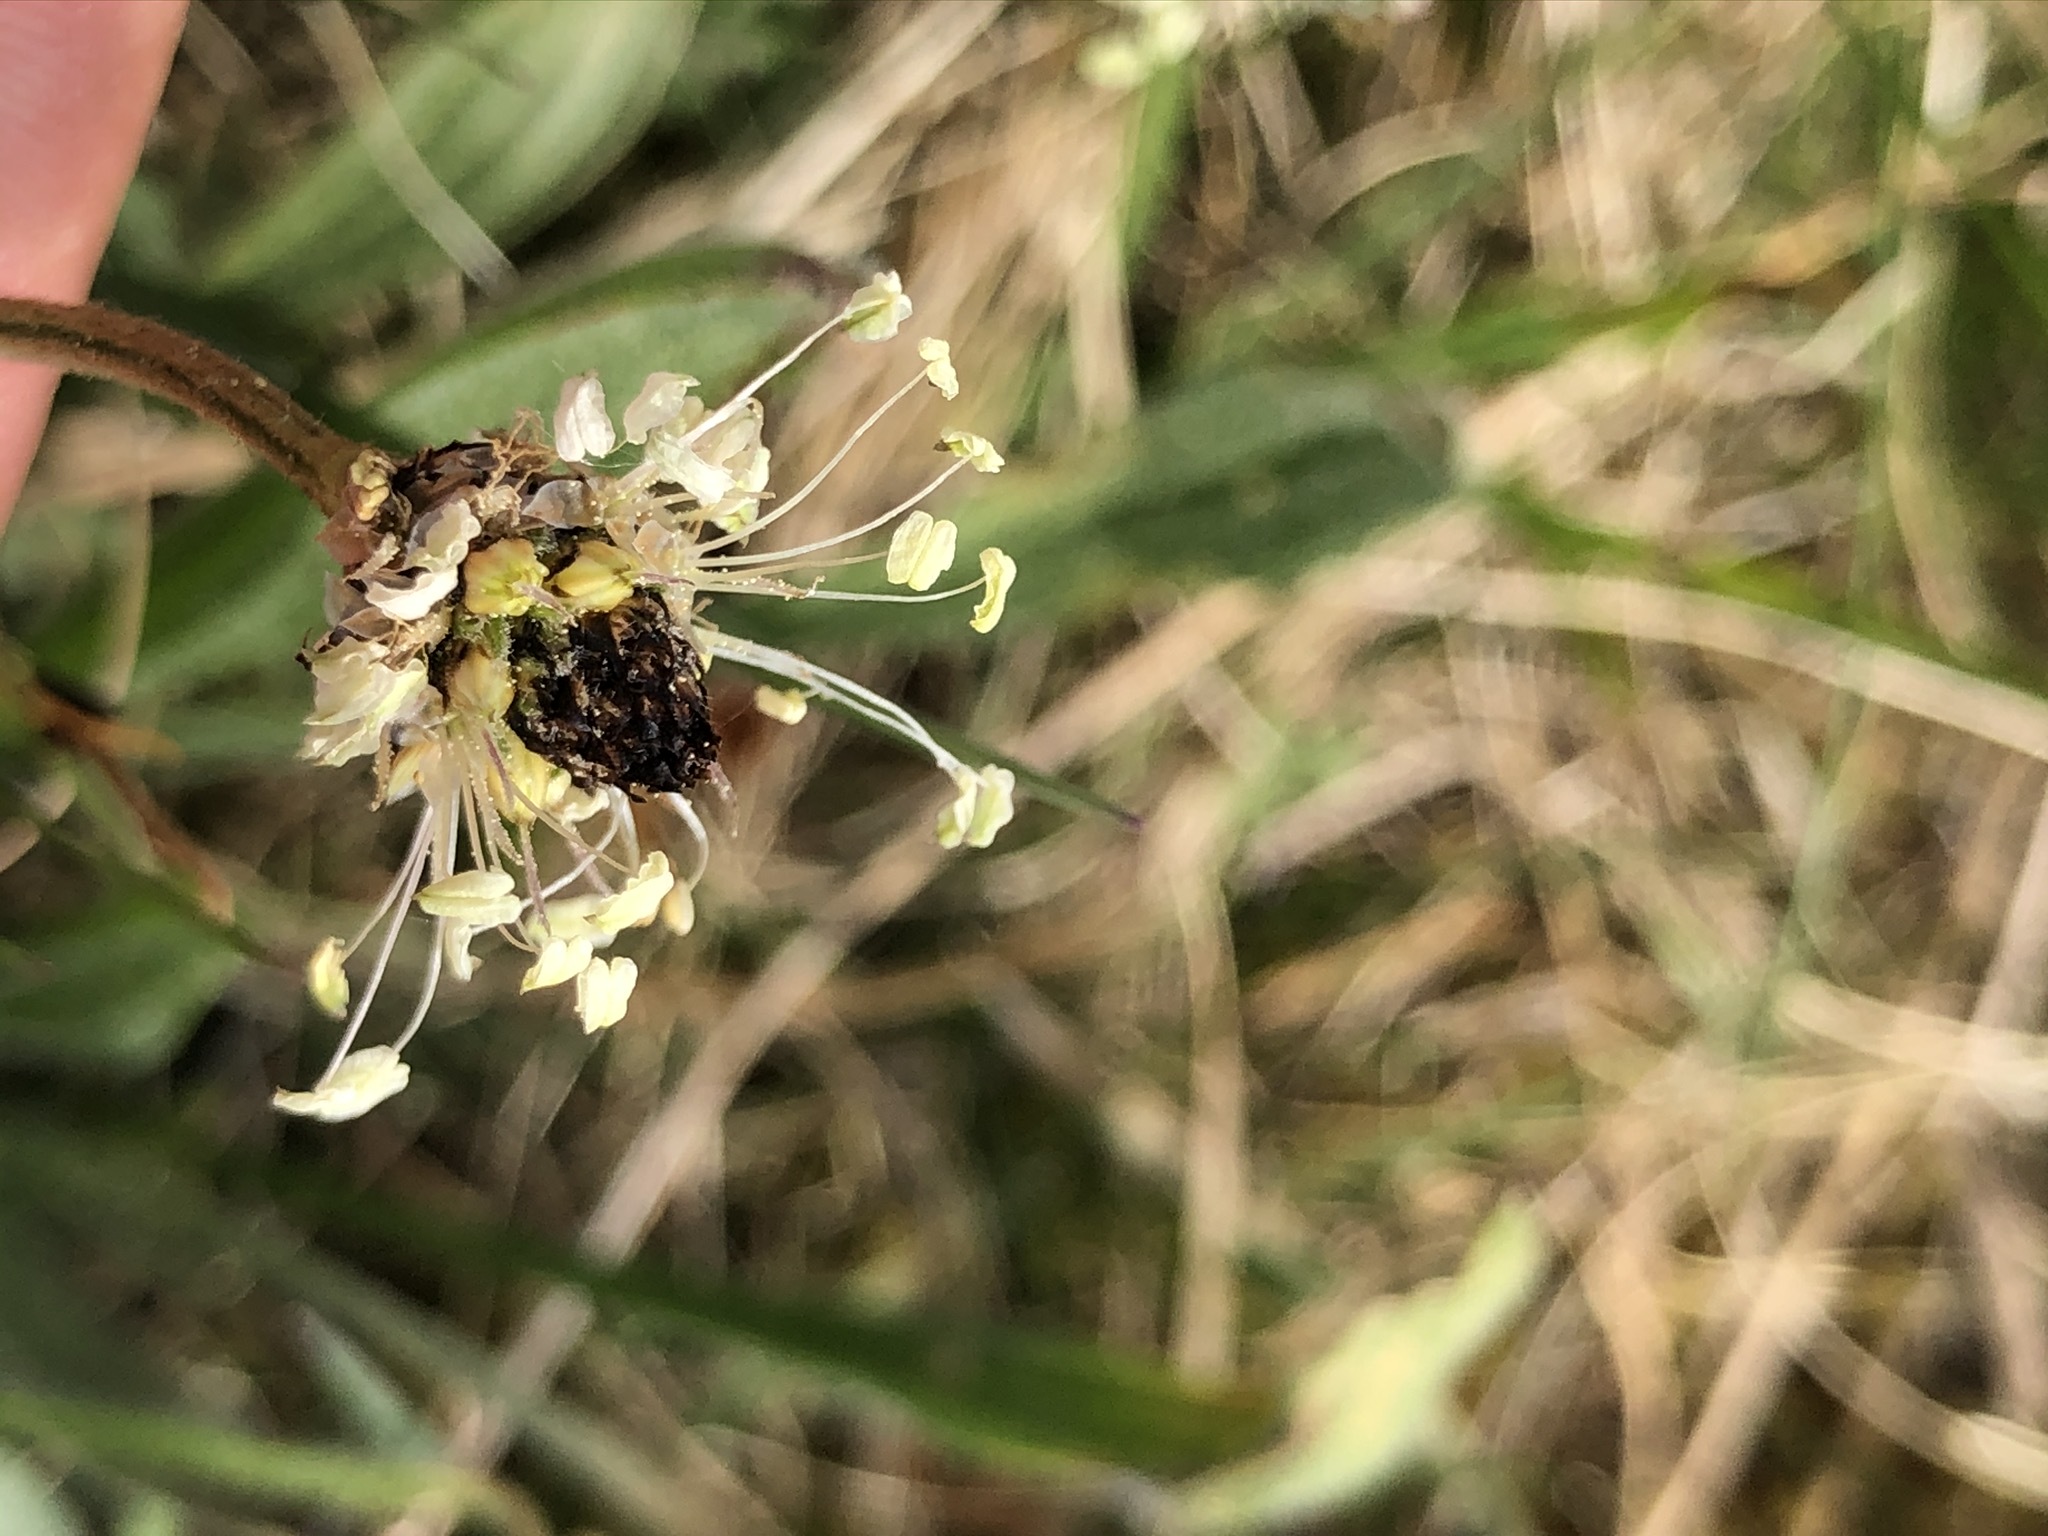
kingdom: Plantae
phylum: Tracheophyta
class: Magnoliopsida
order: Lamiales
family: Plantaginaceae
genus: Plantago
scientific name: Plantago lanceolata
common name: Ribwort plantain
